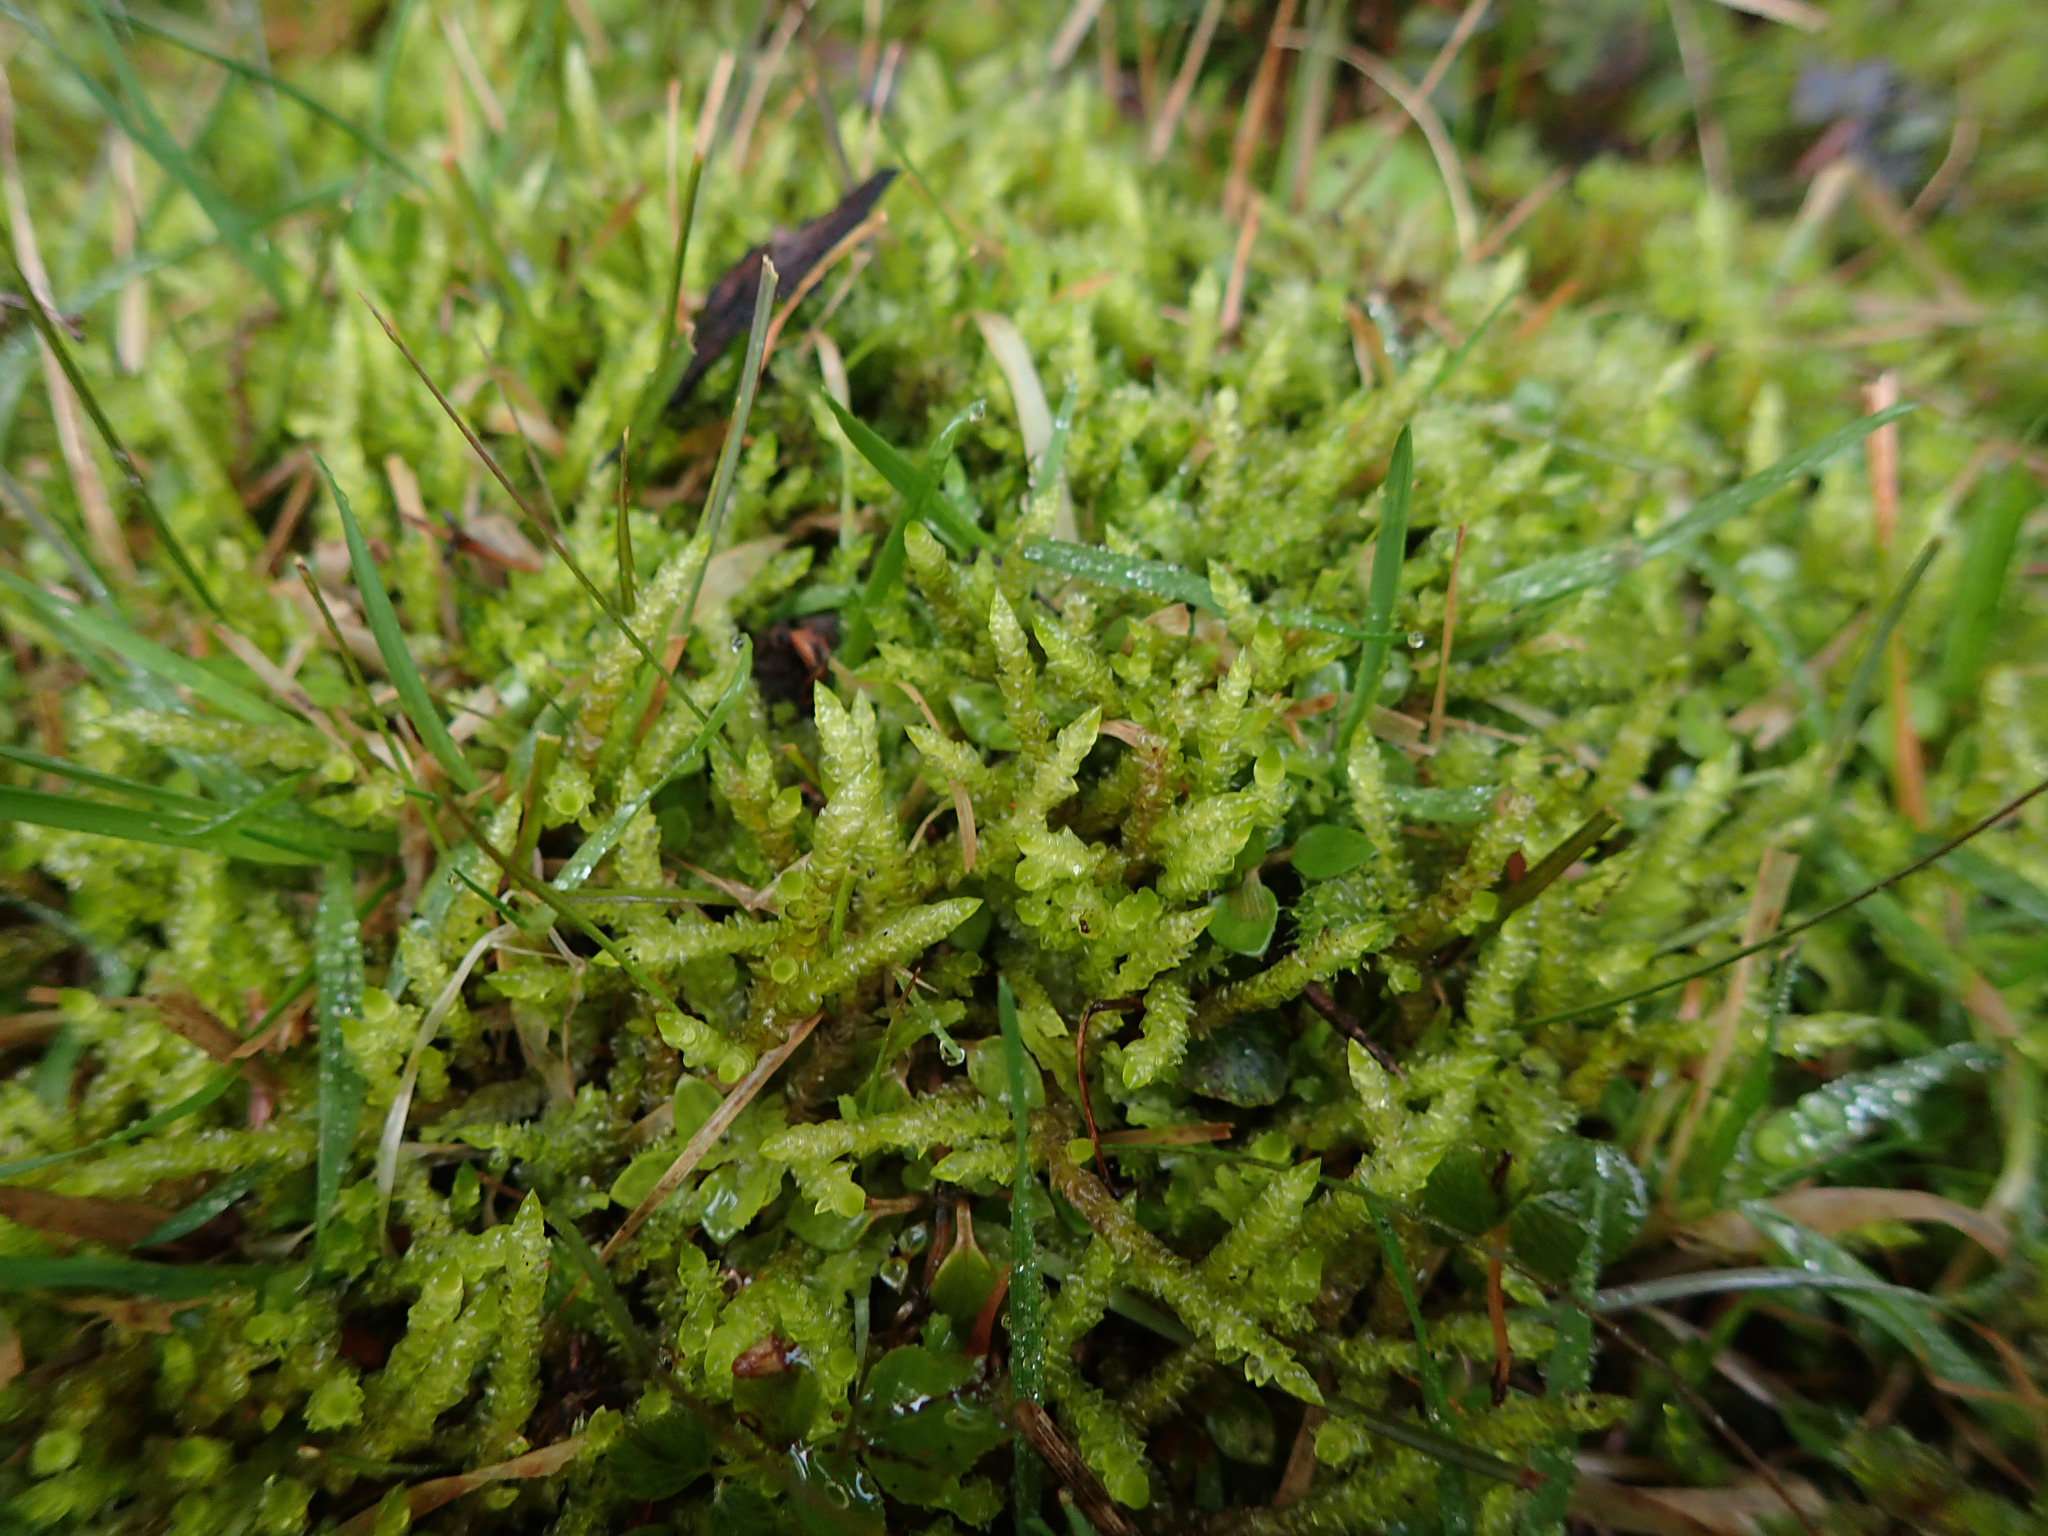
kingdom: Plantae
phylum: Bryophyta
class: Bryopsida
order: Hypnales
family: Brachytheciaceae
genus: Pseudoscleropodium
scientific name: Pseudoscleropodium purum
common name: Neat feather-moss
